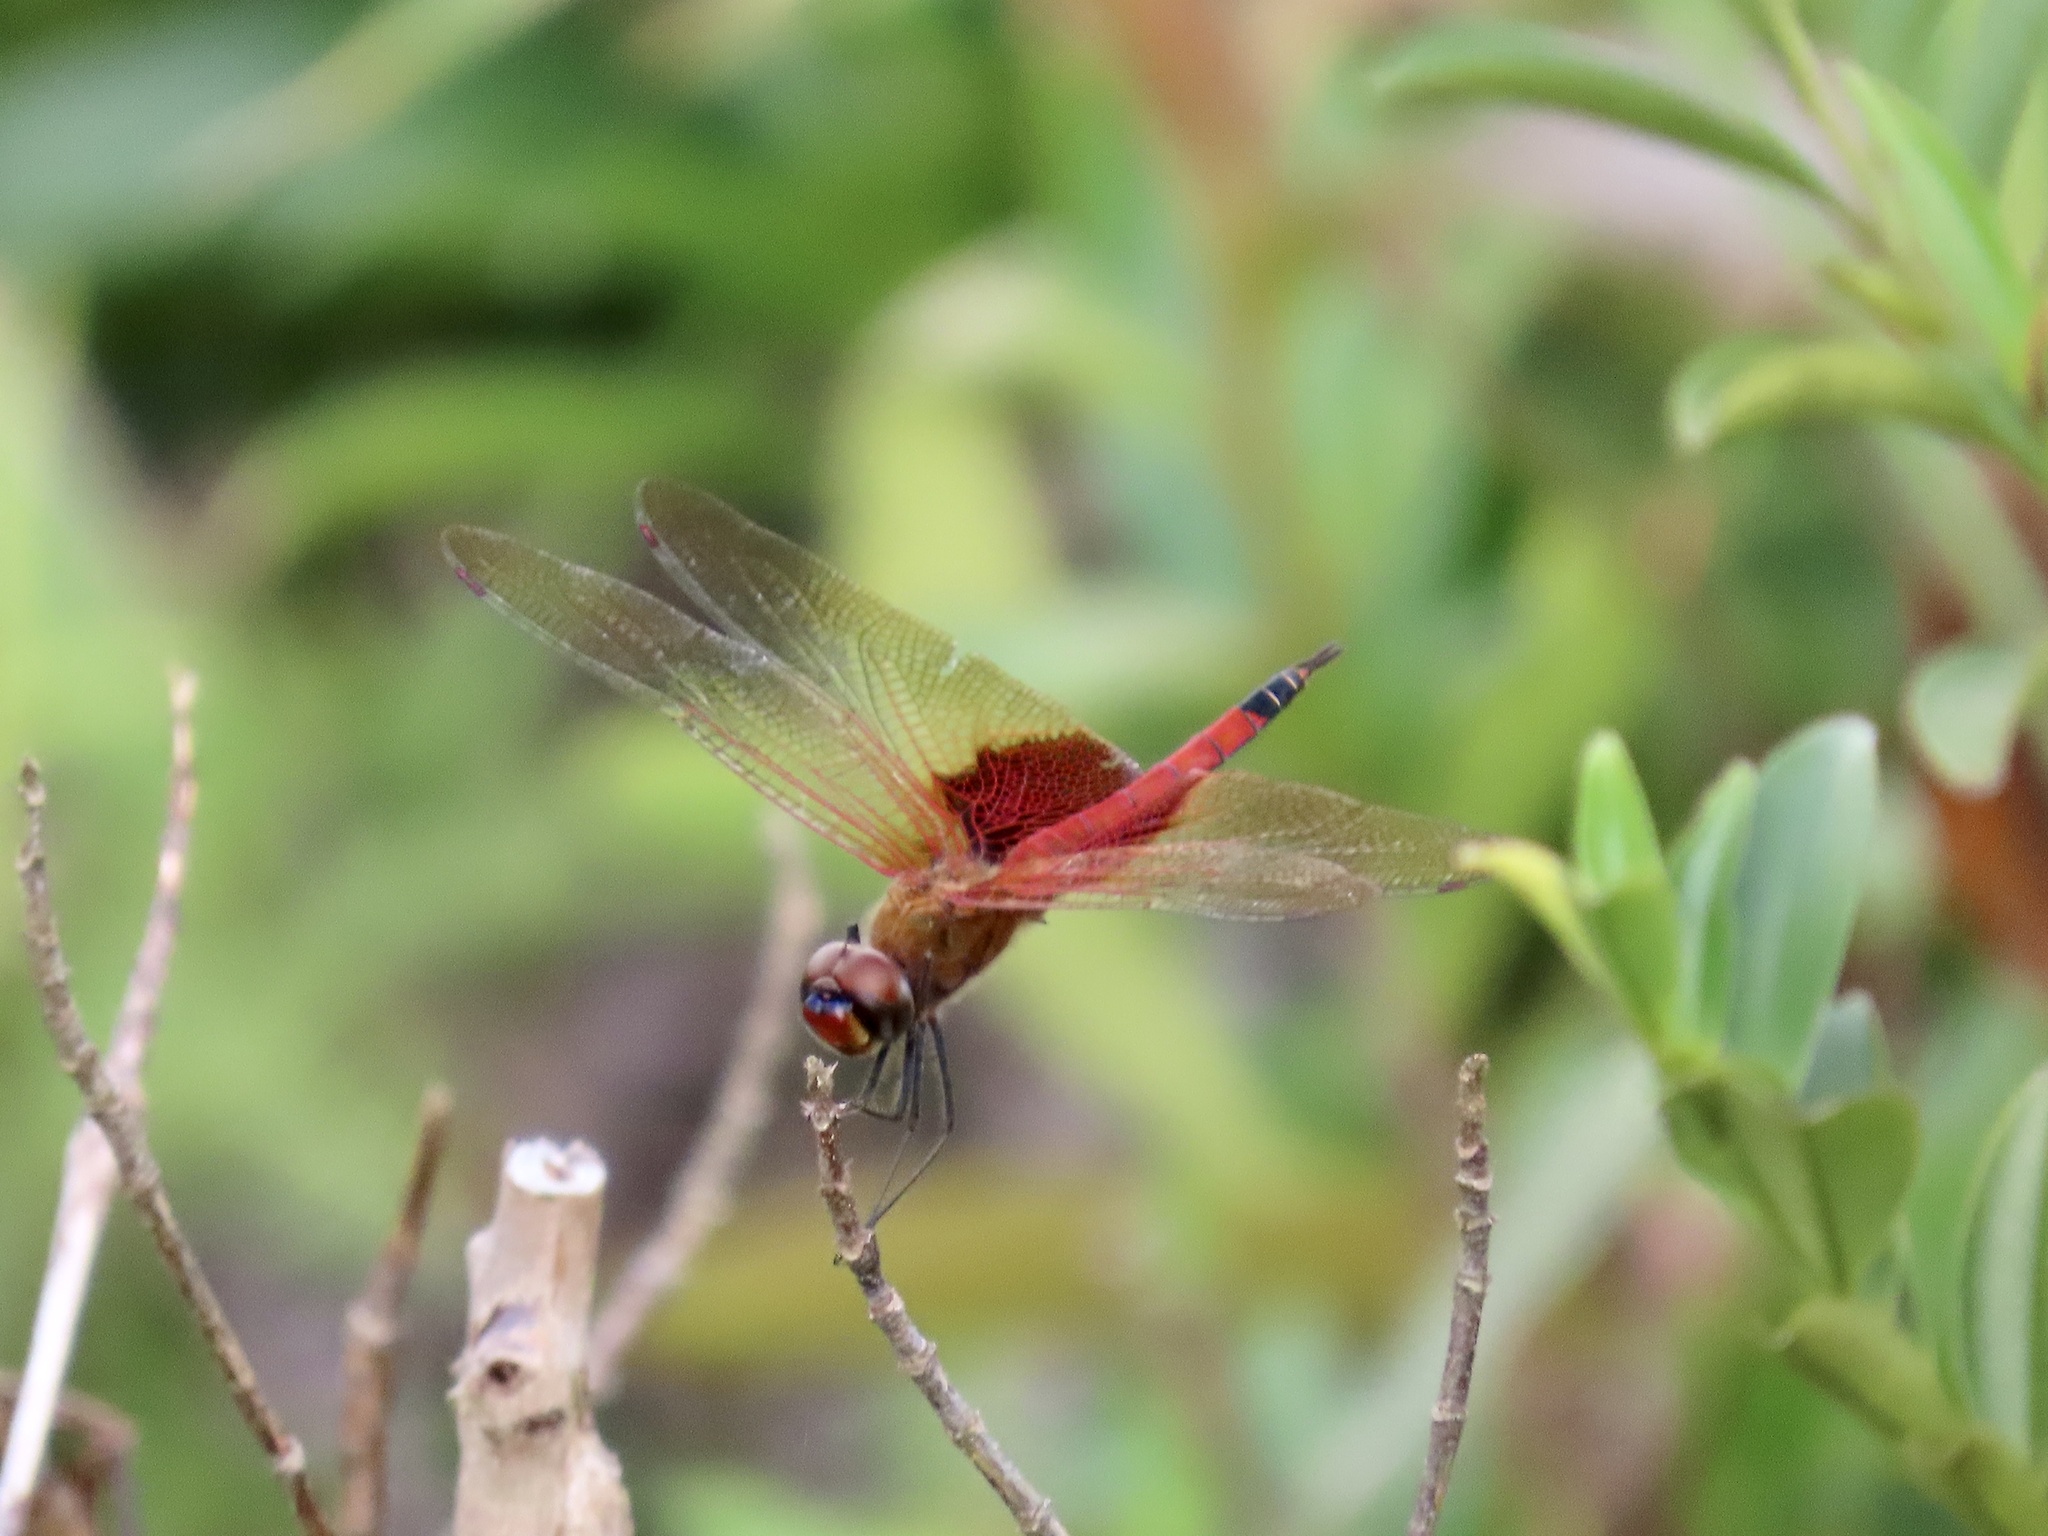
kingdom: Animalia
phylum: Arthropoda
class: Insecta
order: Odonata
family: Libellulidae
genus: Tramea
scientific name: Tramea virginia
